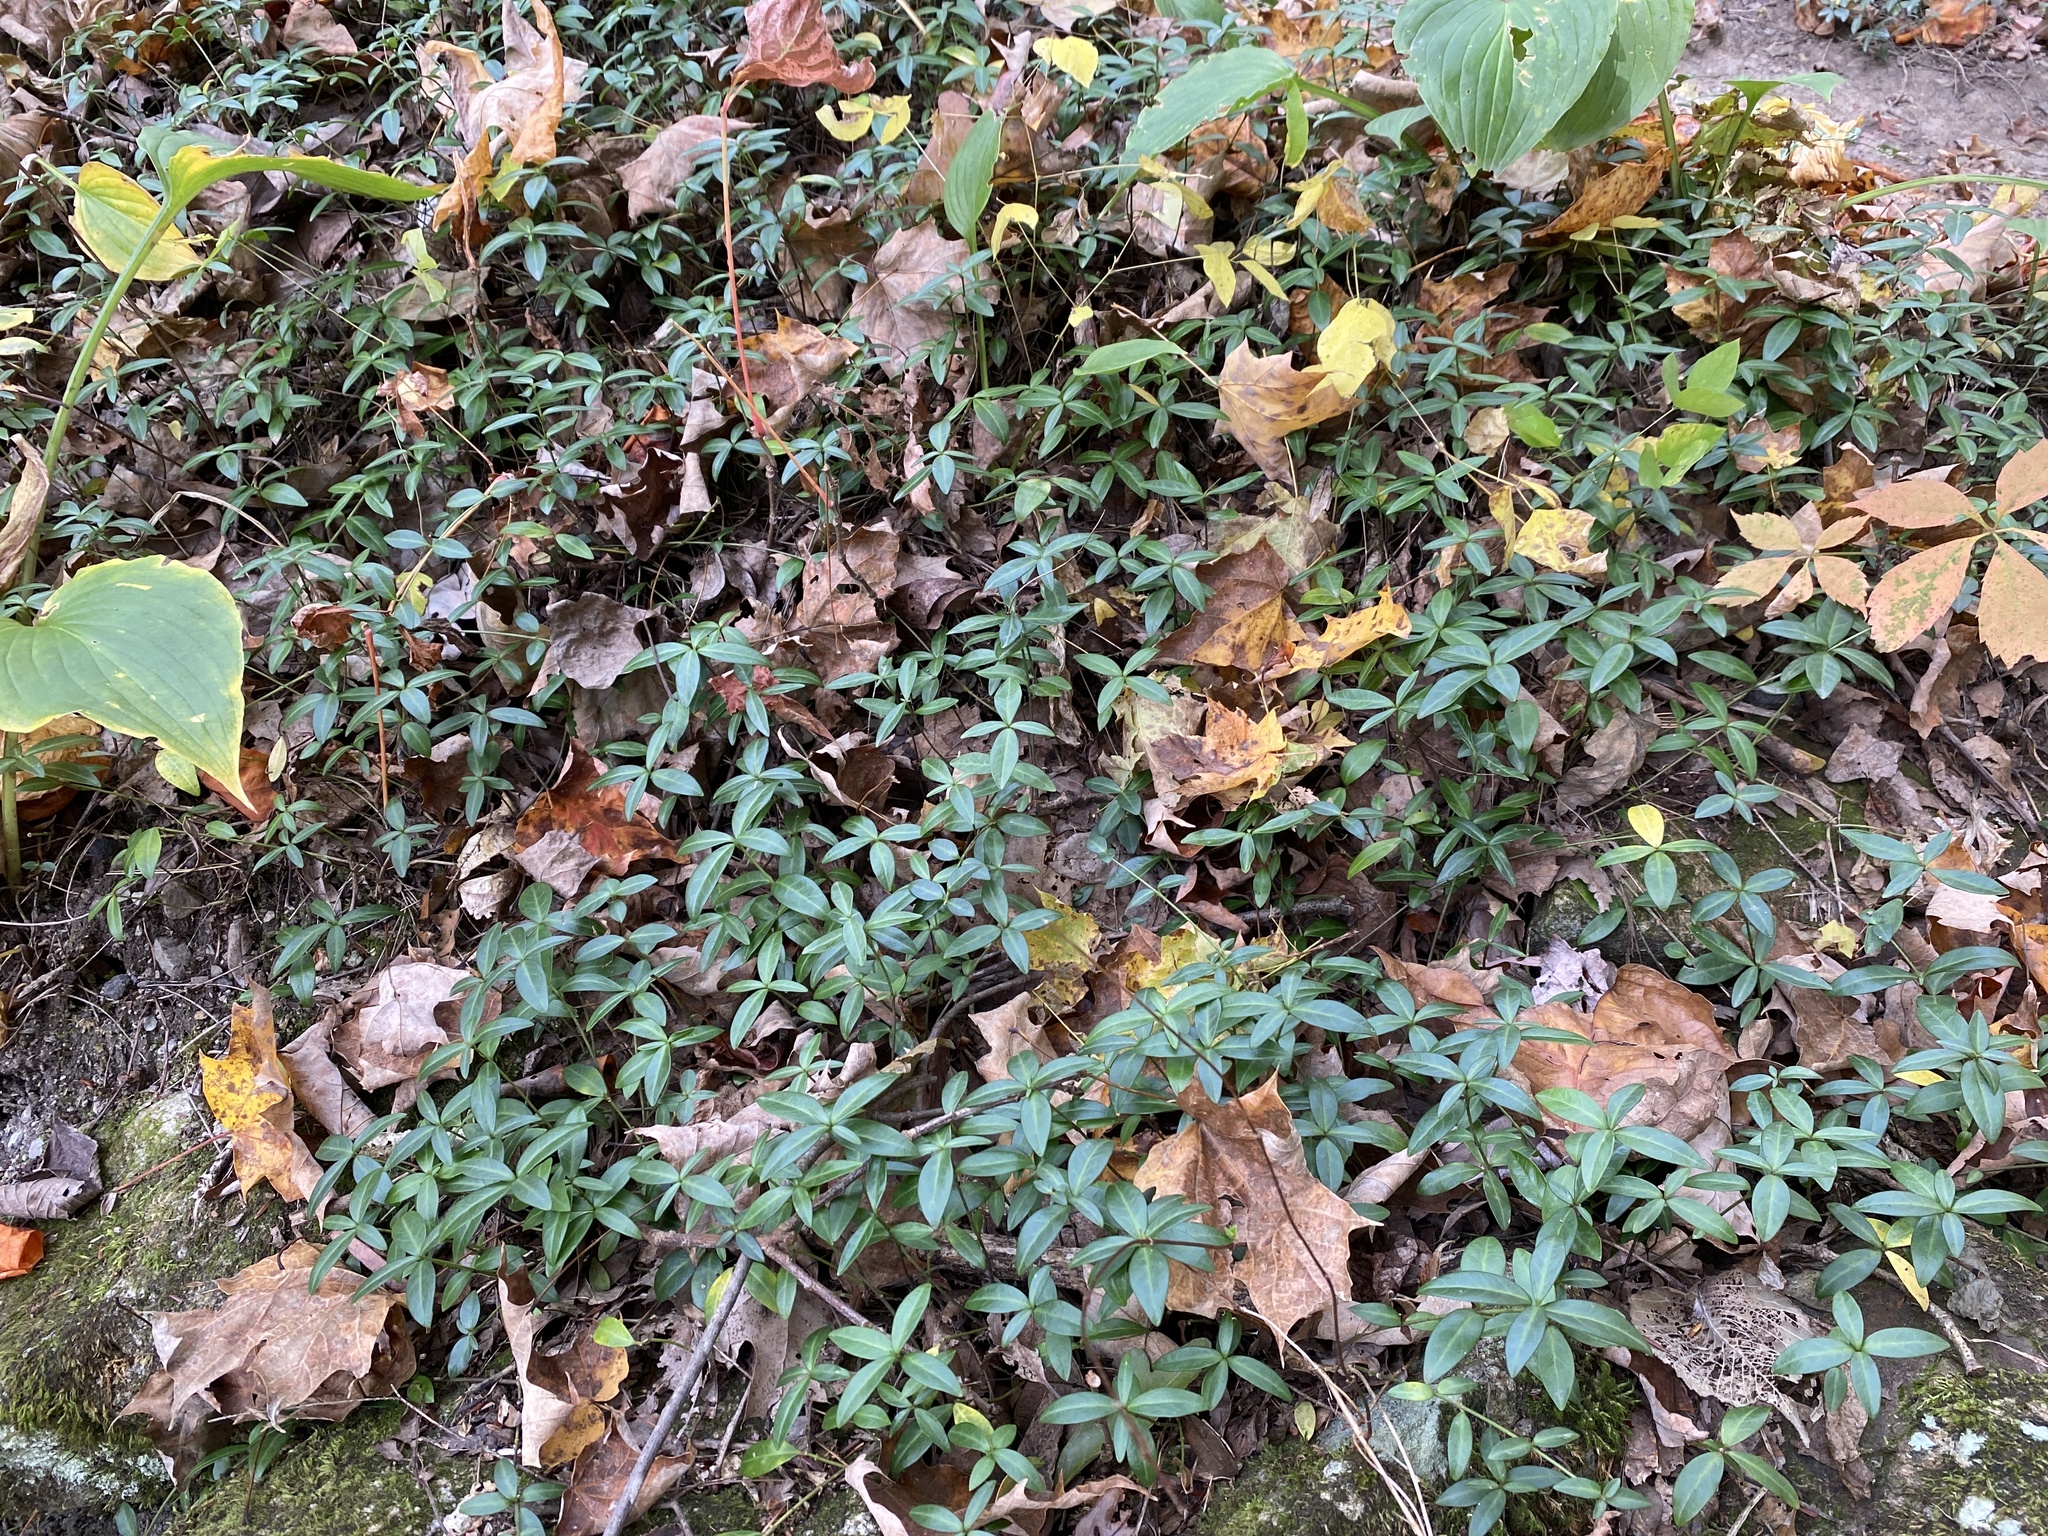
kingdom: Plantae
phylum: Tracheophyta
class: Magnoliopsida
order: Gentianales
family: Apocynaceae
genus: Vinca
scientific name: Vinca minor
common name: Lesser periwinkle
